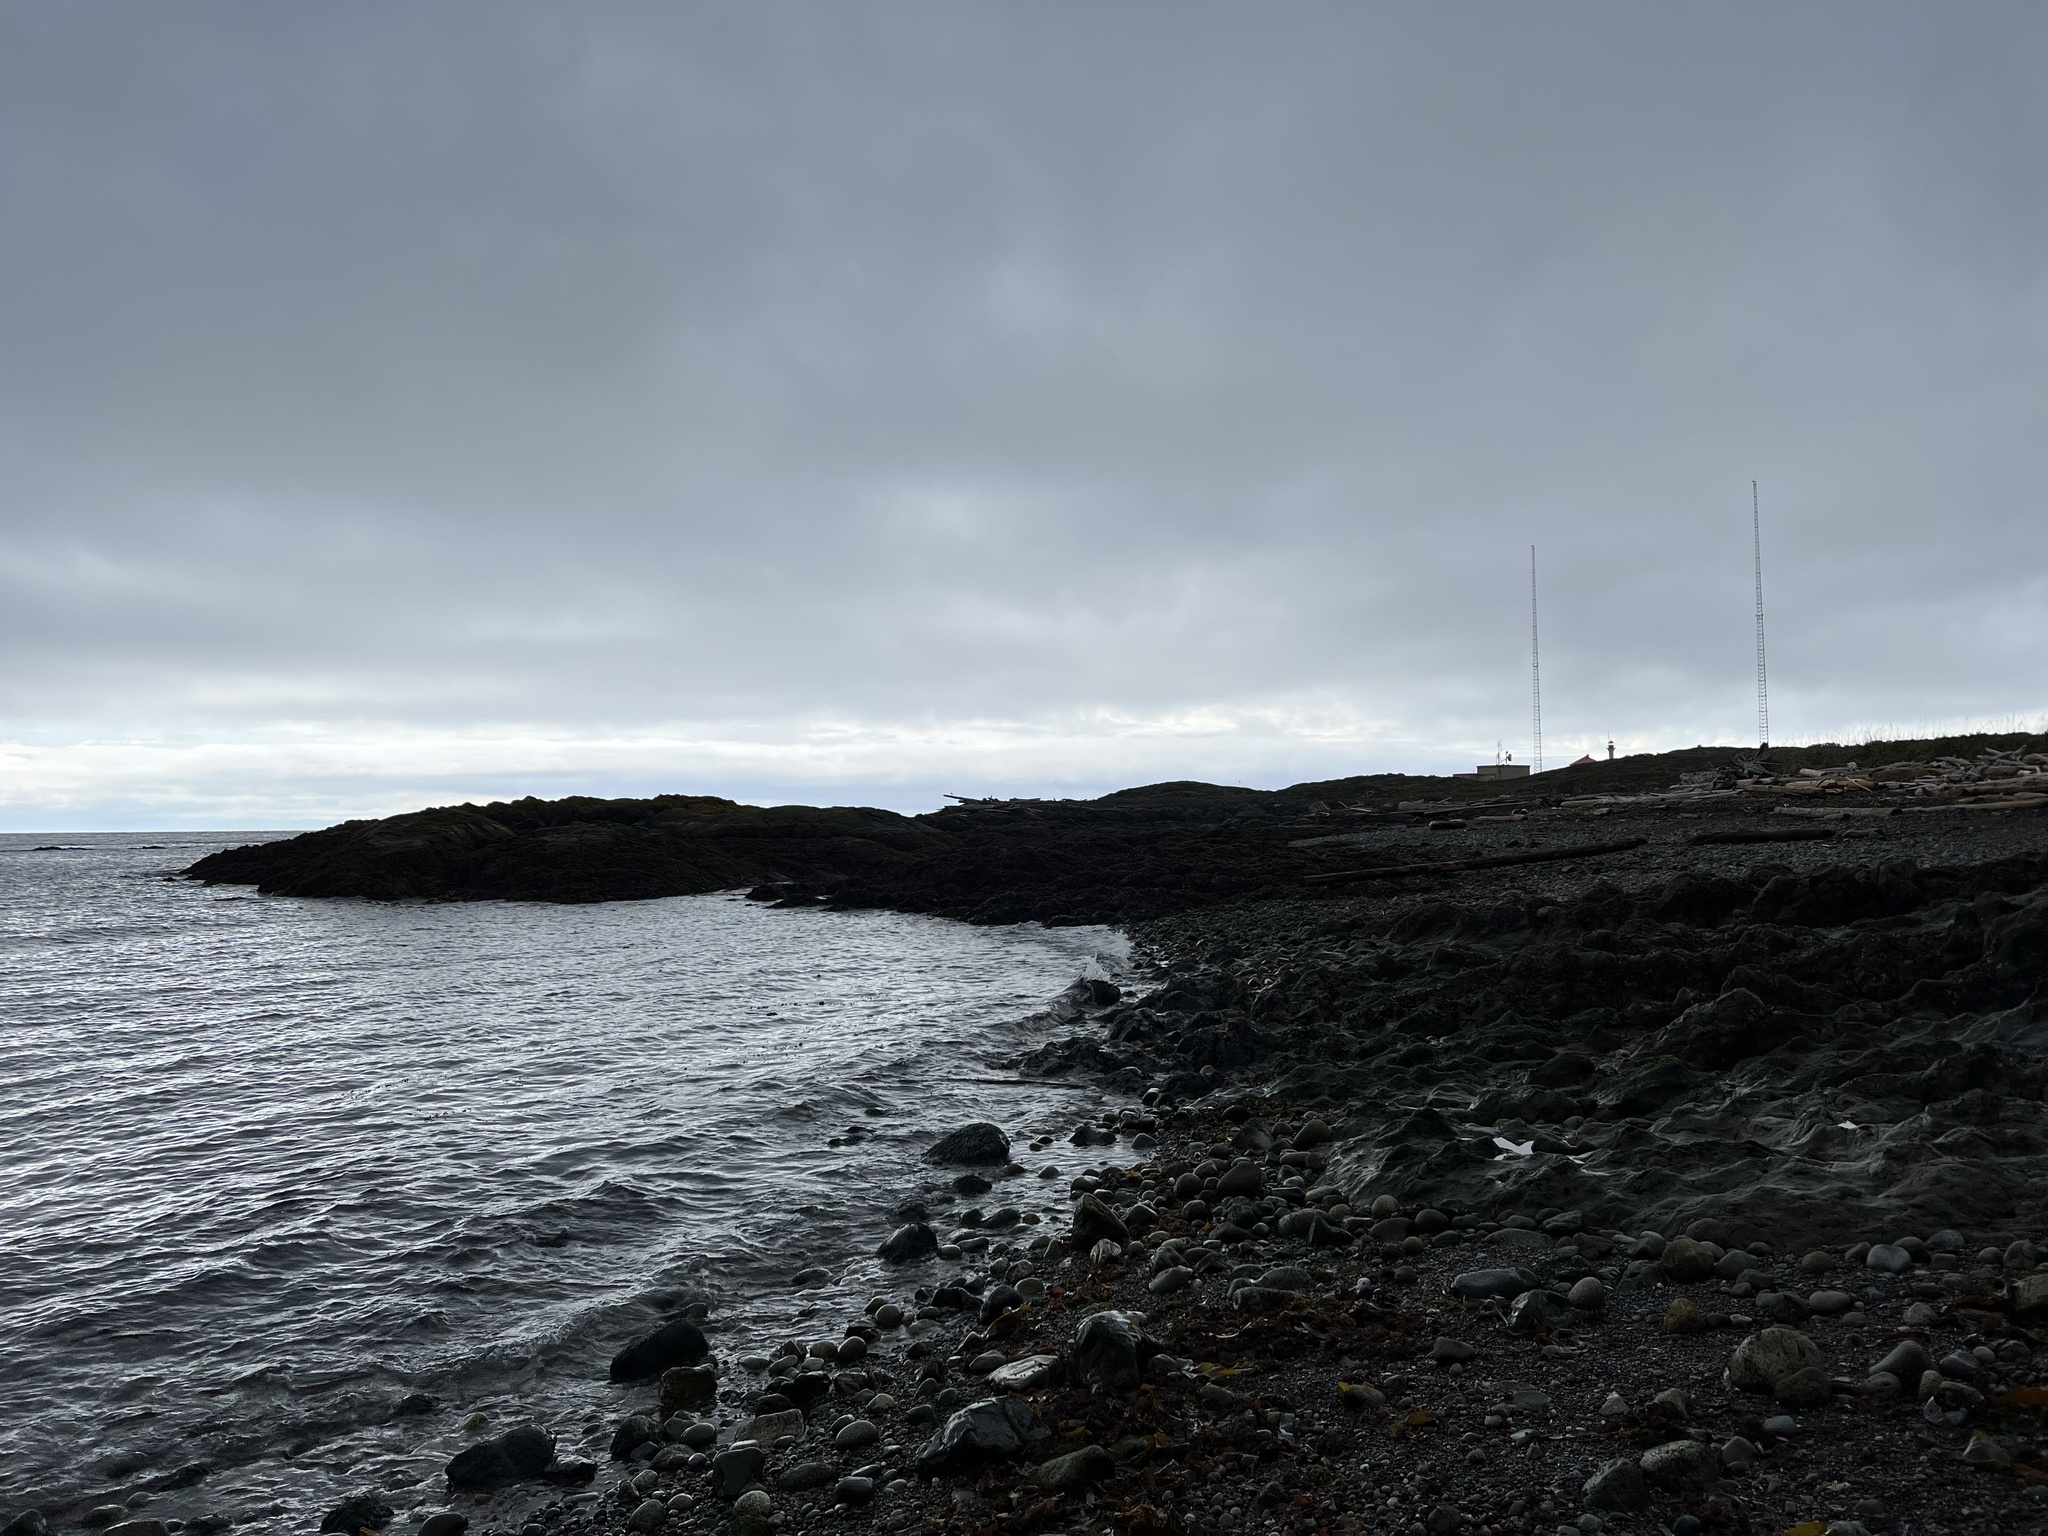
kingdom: Animalia
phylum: Chordata
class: Aves
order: Charadriiformes
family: Haematopodidae
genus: Haematopus
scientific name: Haematopus bachmani
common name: Black oystercatcher
